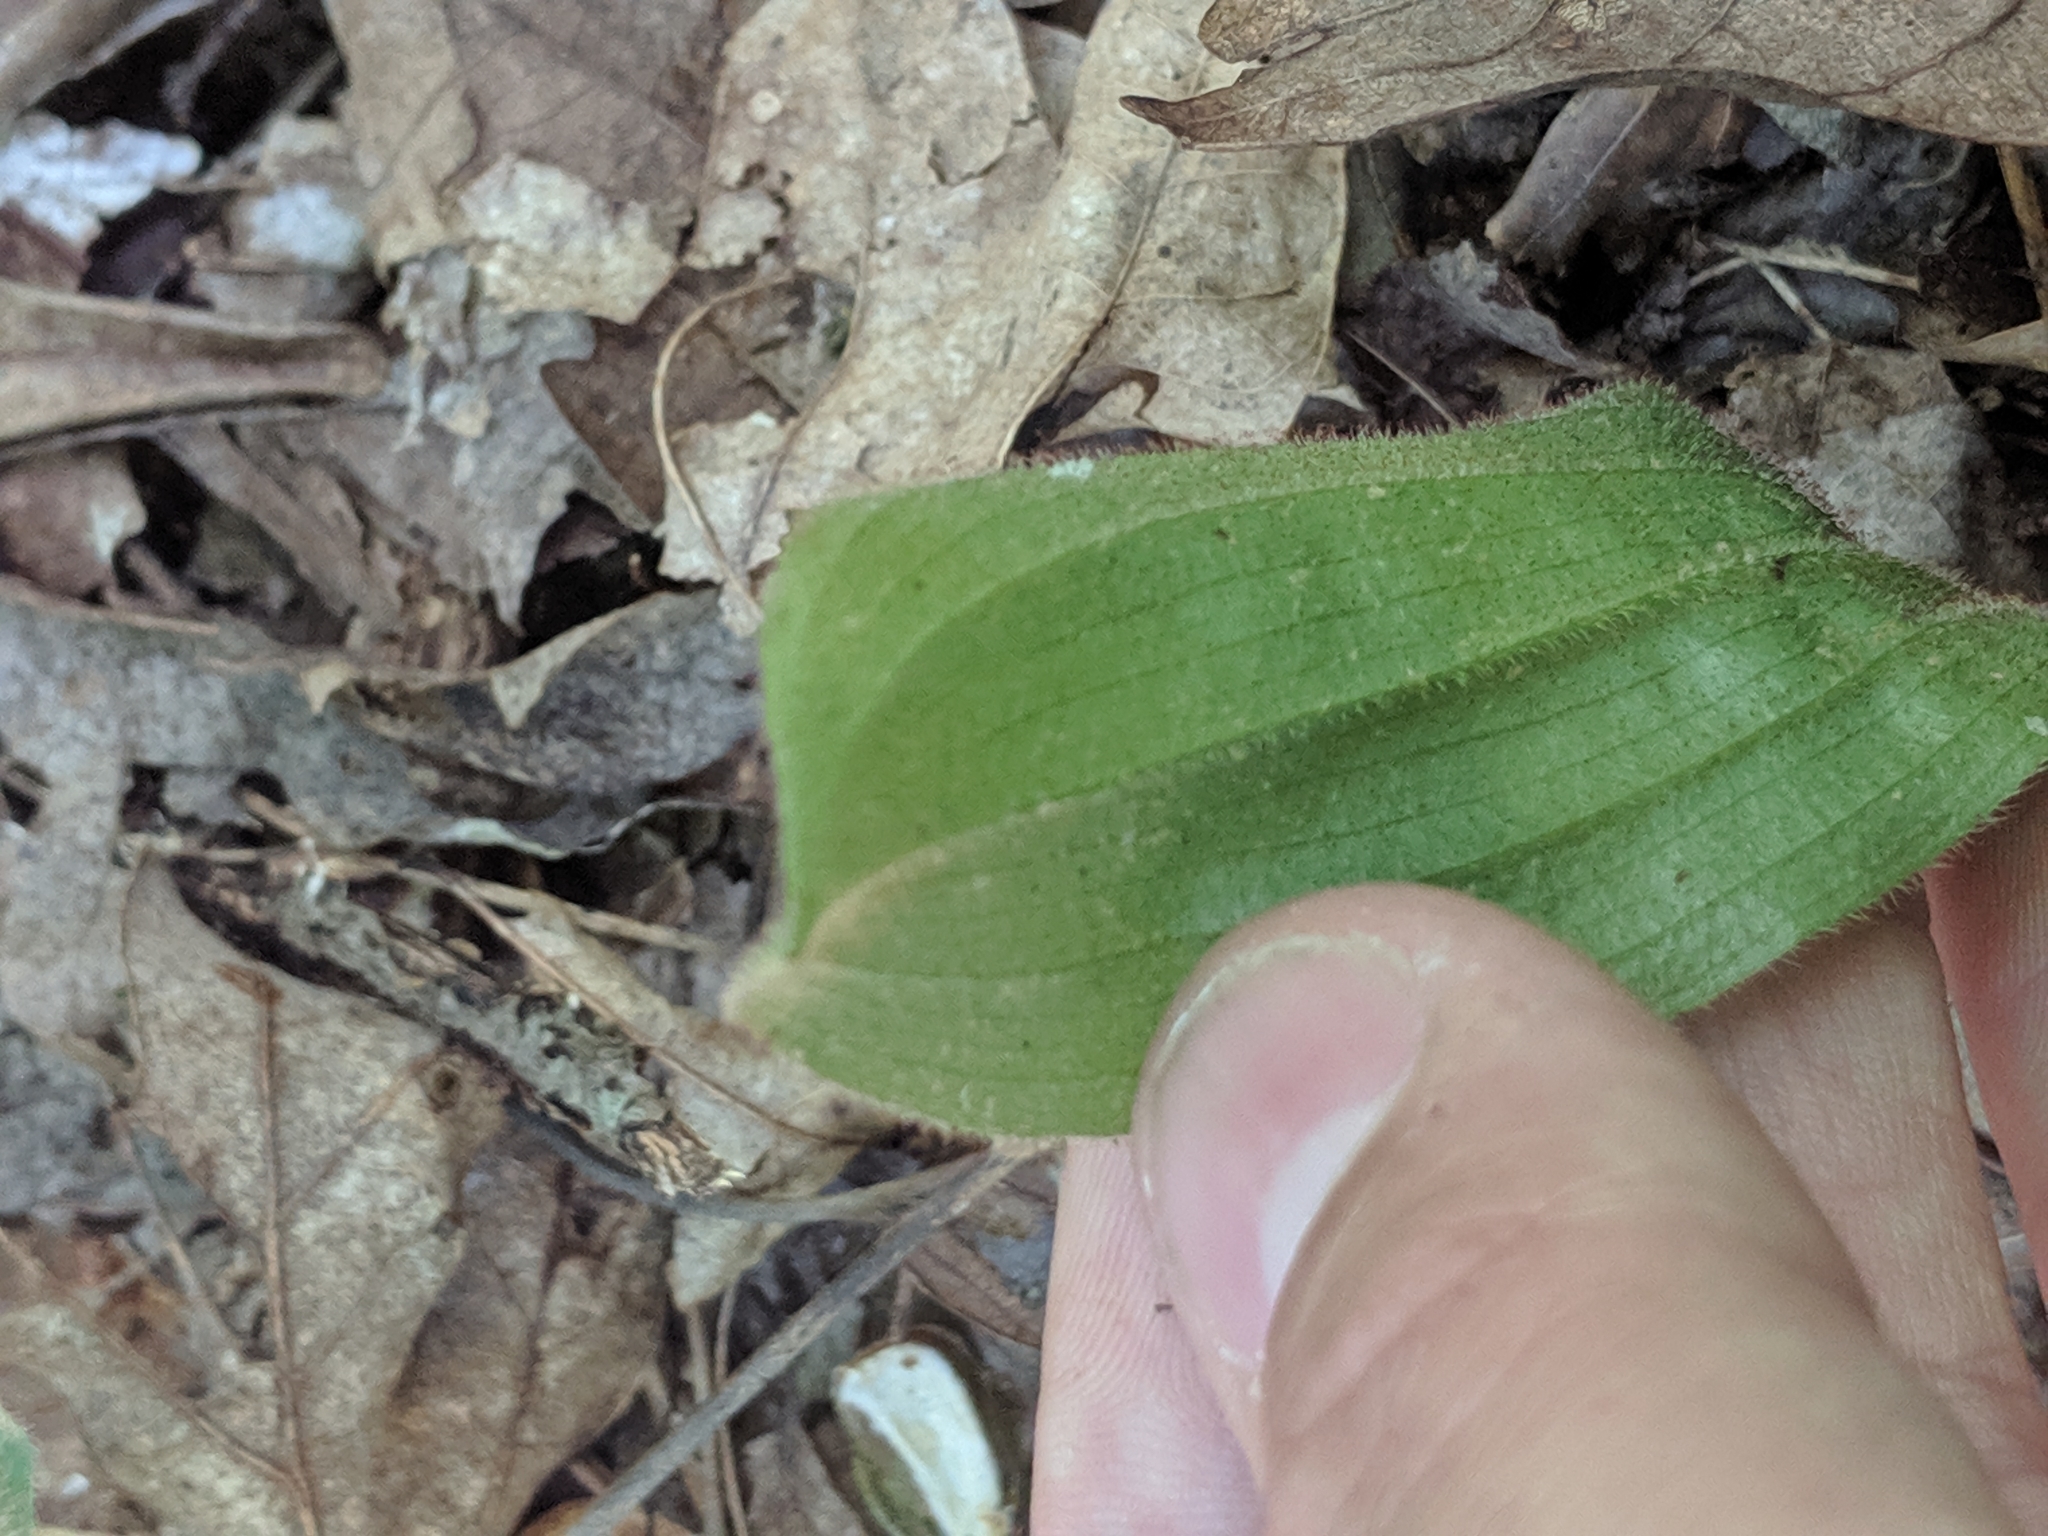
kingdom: Plantae
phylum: Tracheophyta
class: Liliopsida
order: Asparagales
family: Orchidaceae
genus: Cypripedium
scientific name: Cypripedium acaule
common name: Pink lady's-slipper
